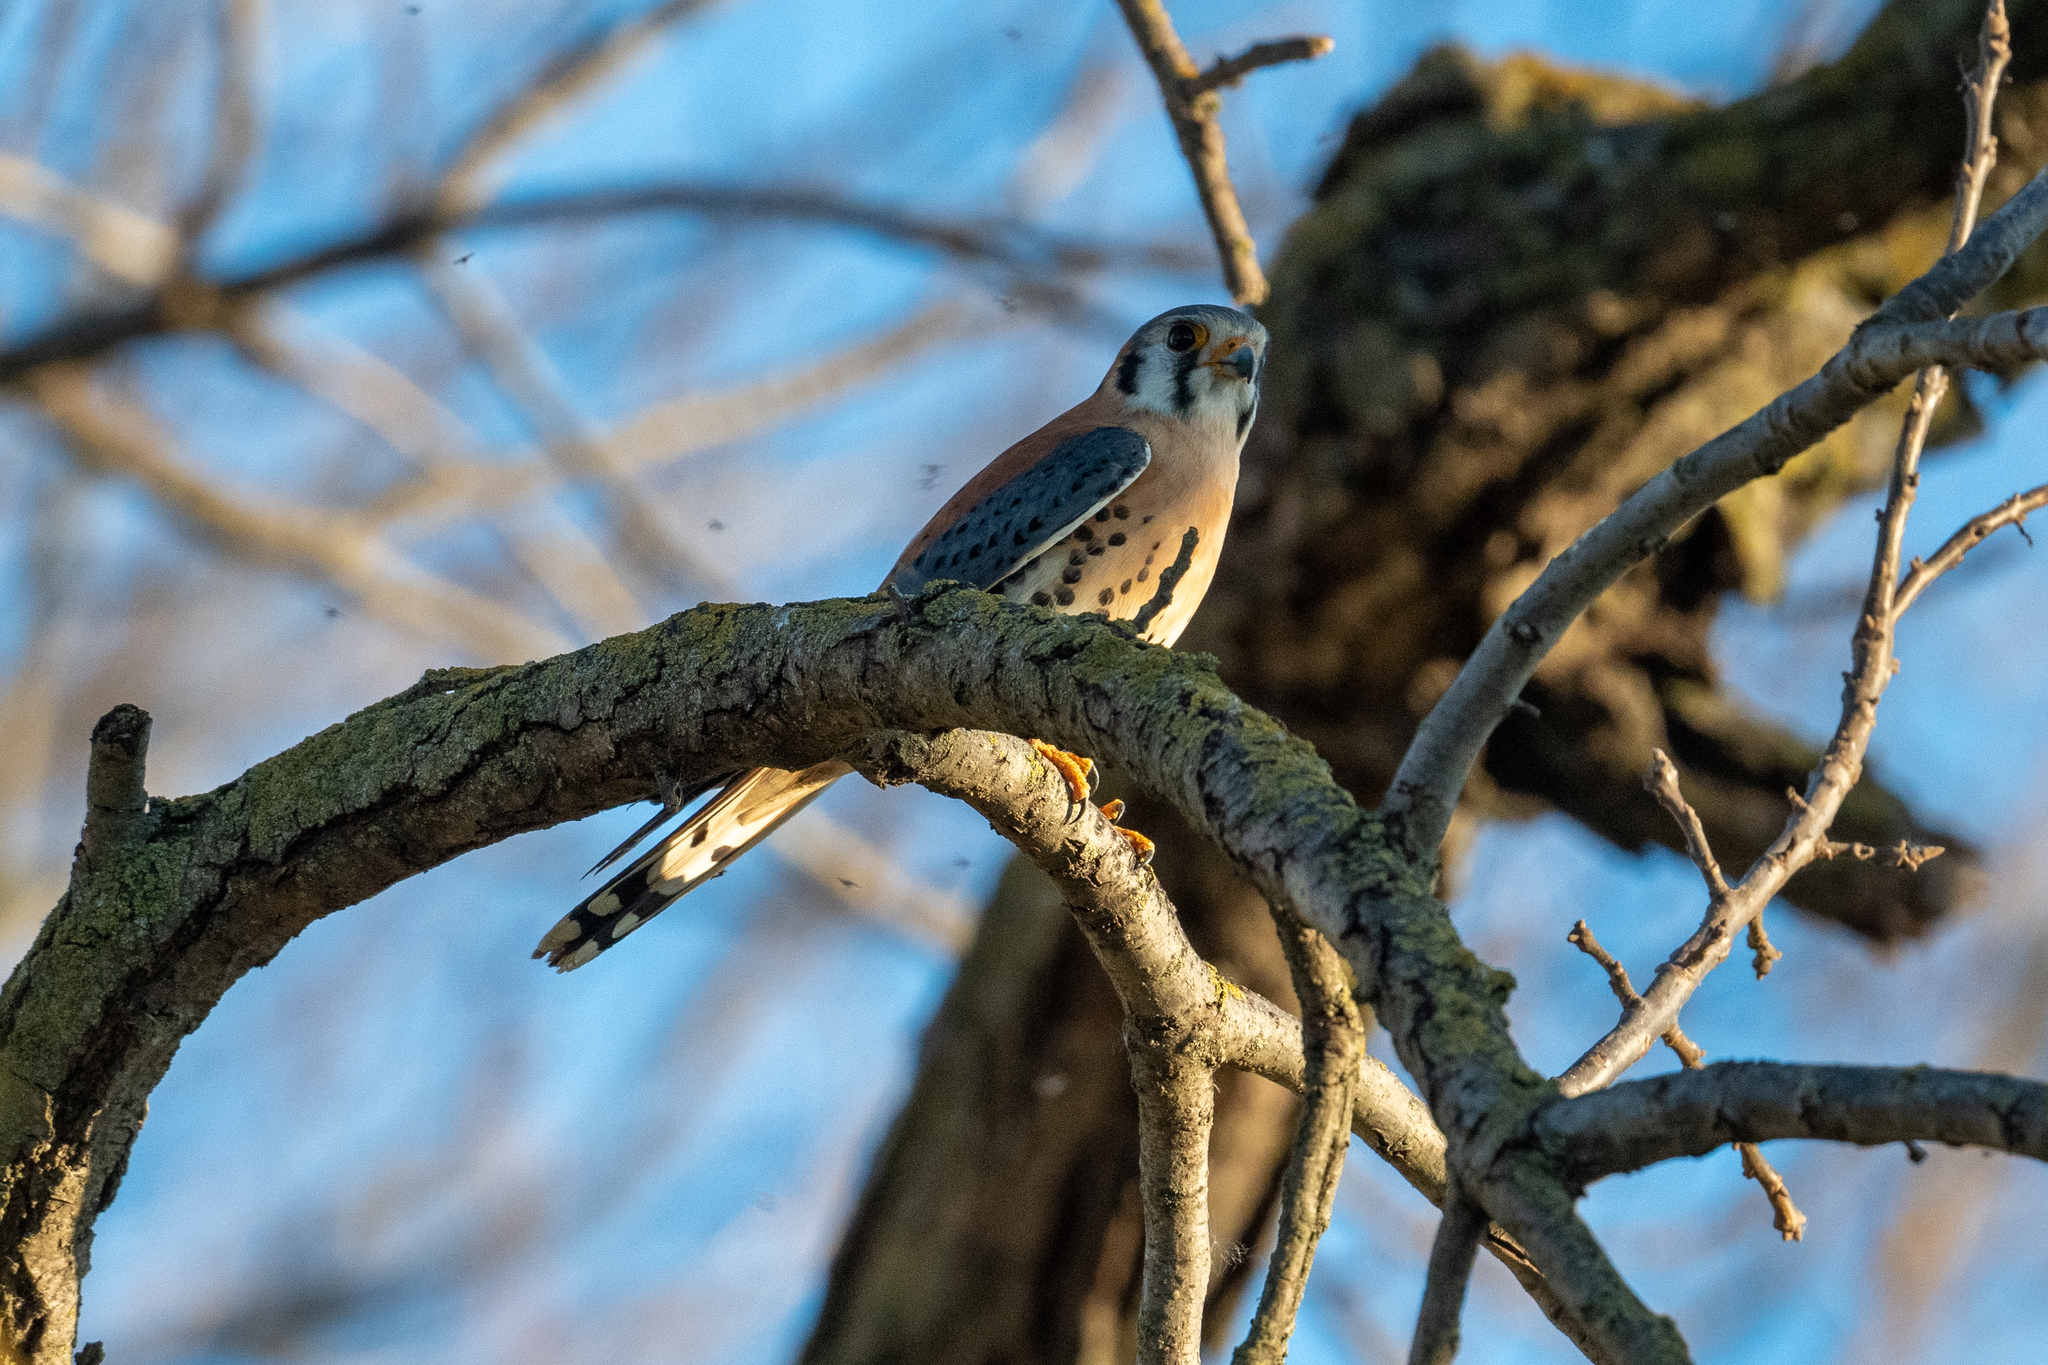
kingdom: Animalia
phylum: Chordata
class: Aves
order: Falconiformes
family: Falconidae
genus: Falco
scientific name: Falco sparverius
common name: American kestrel
